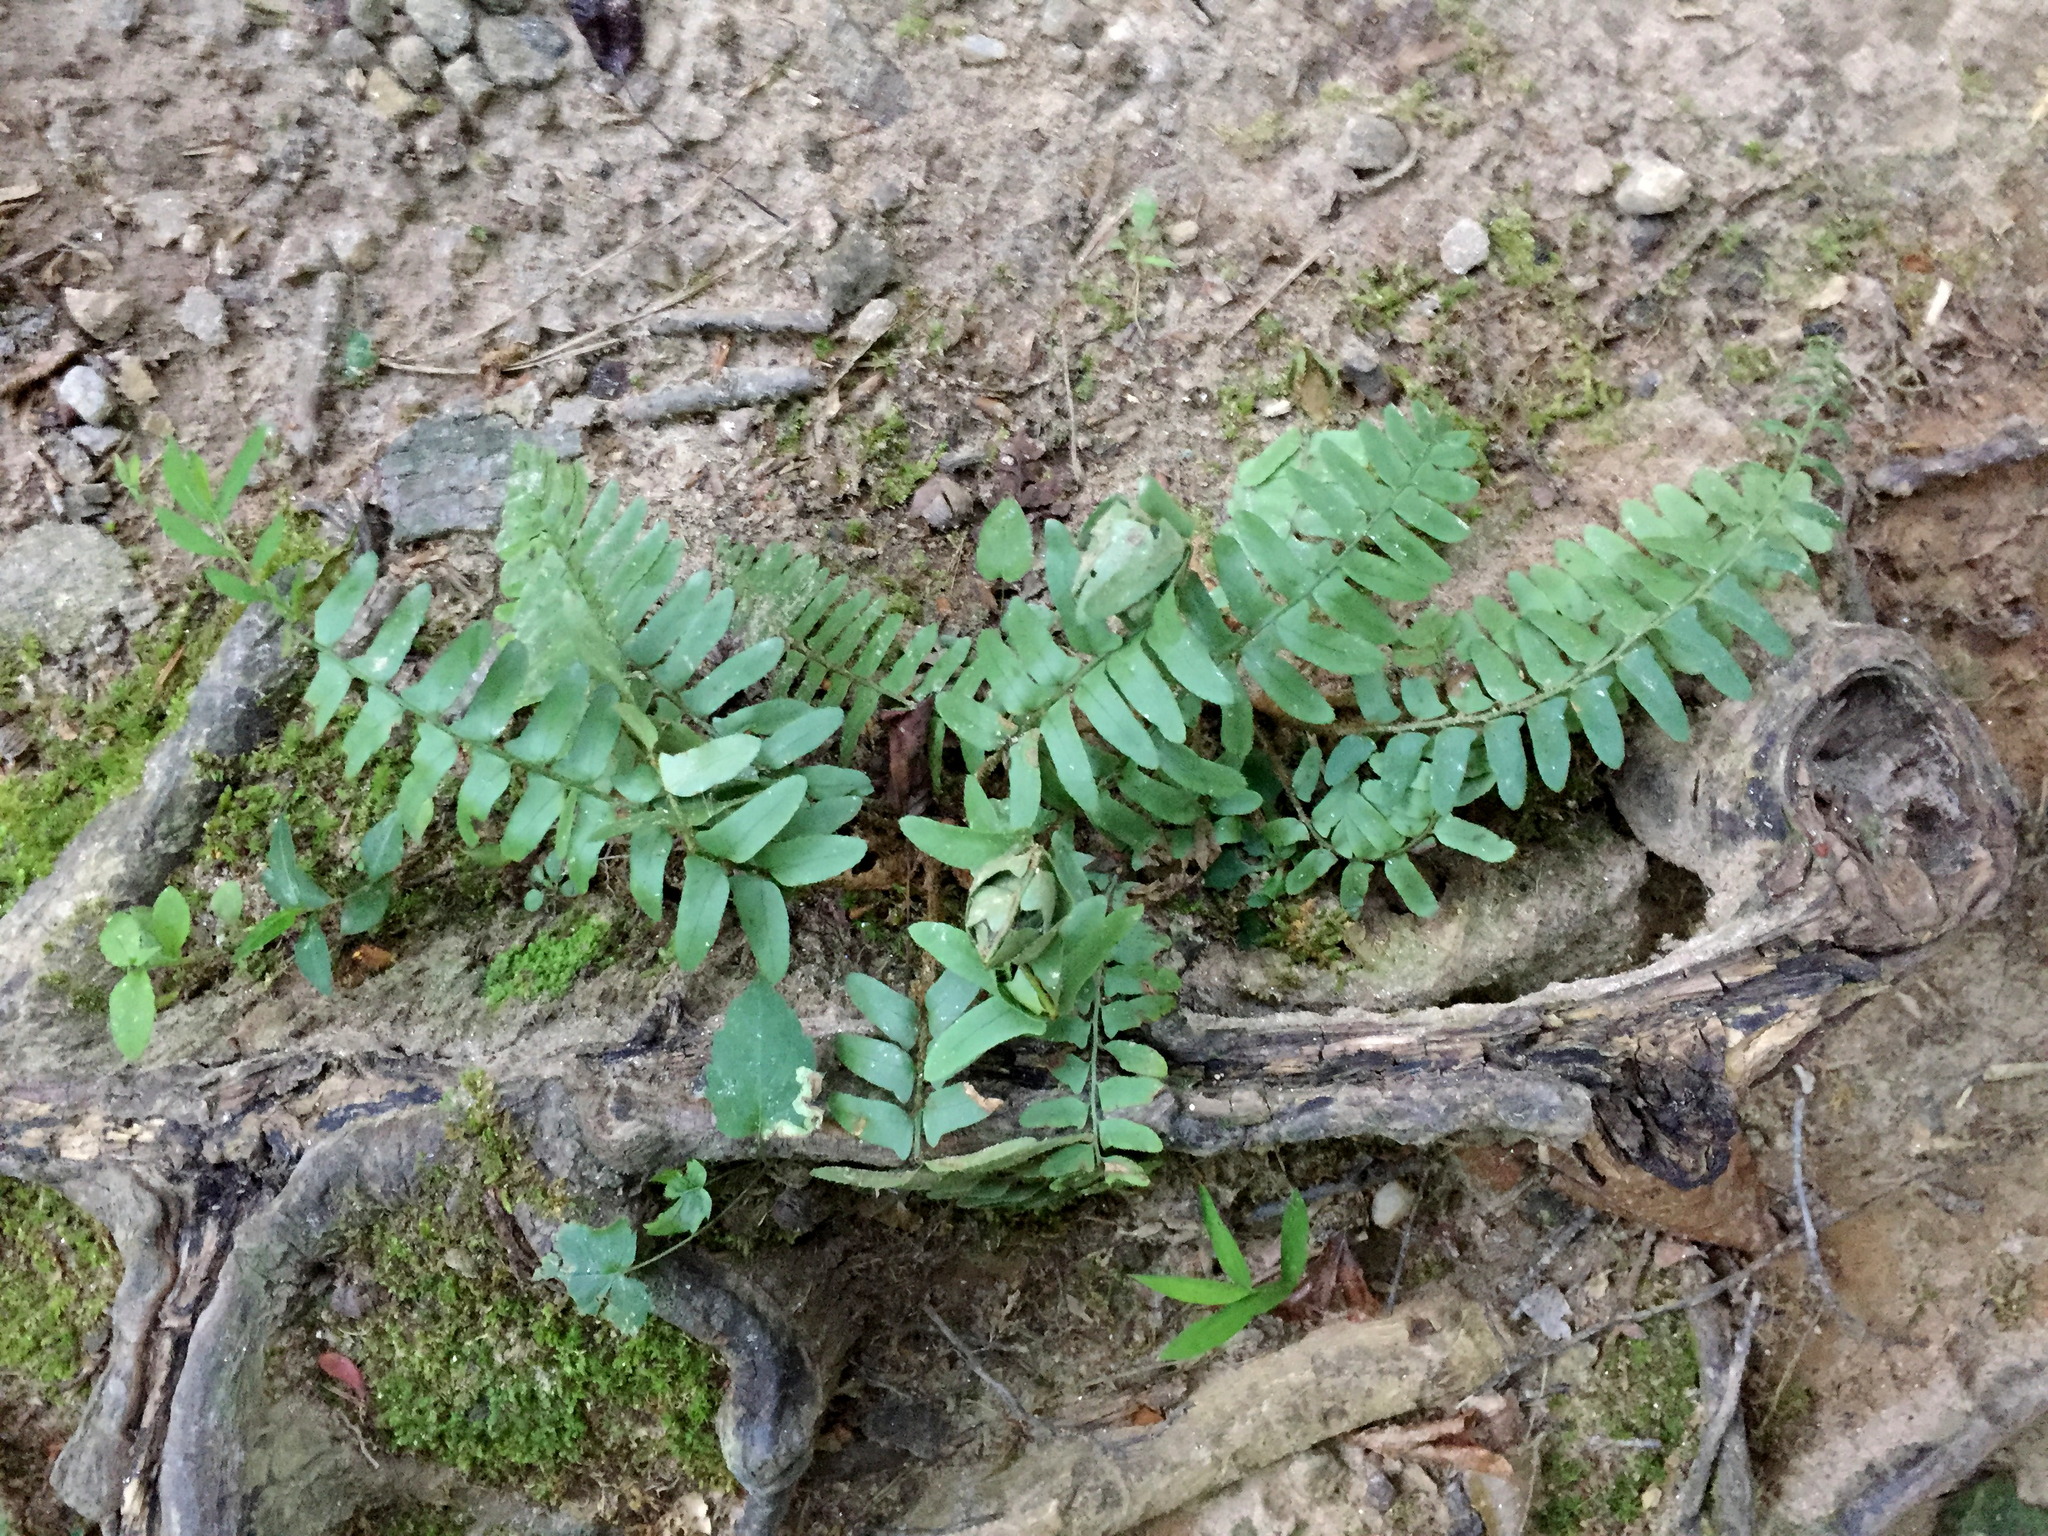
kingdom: Plantae
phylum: Tracheophyta
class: Polypodiopsida
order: Polypodiales
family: Dryopteridaceae
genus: Polystichum
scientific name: Polystichum acrostichoides
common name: Christmas fern
